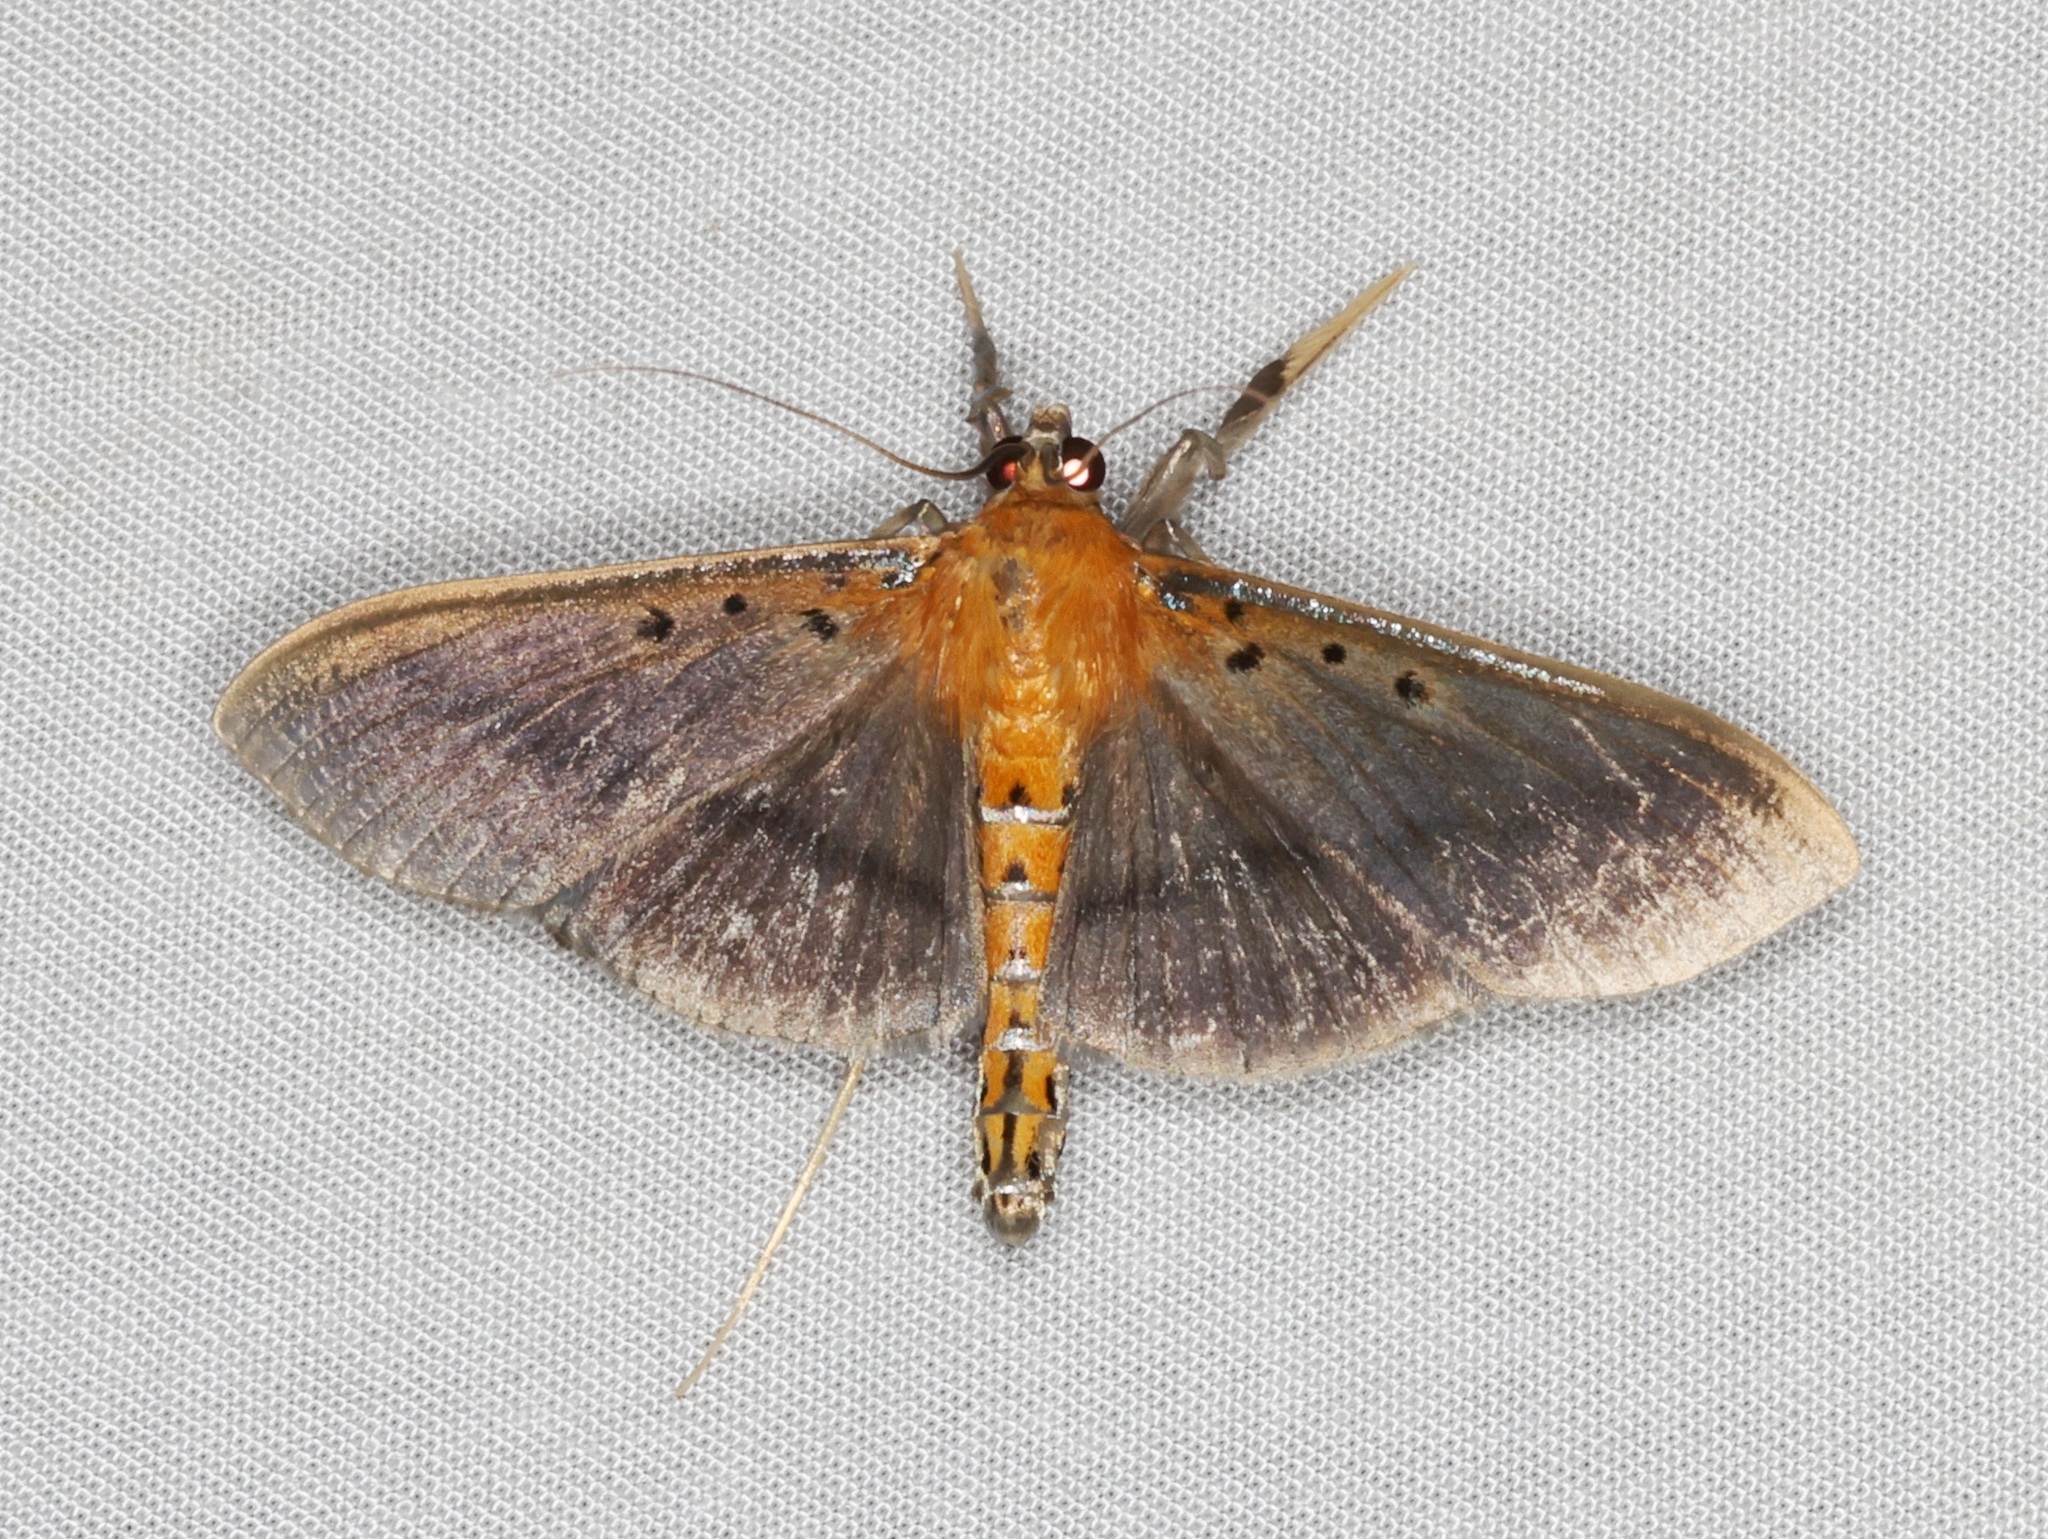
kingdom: Animalia
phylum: Arthropoda
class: Insecta
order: Lepidoptera
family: Crambidae
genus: Filodes
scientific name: Filodes fulvidorsalis
